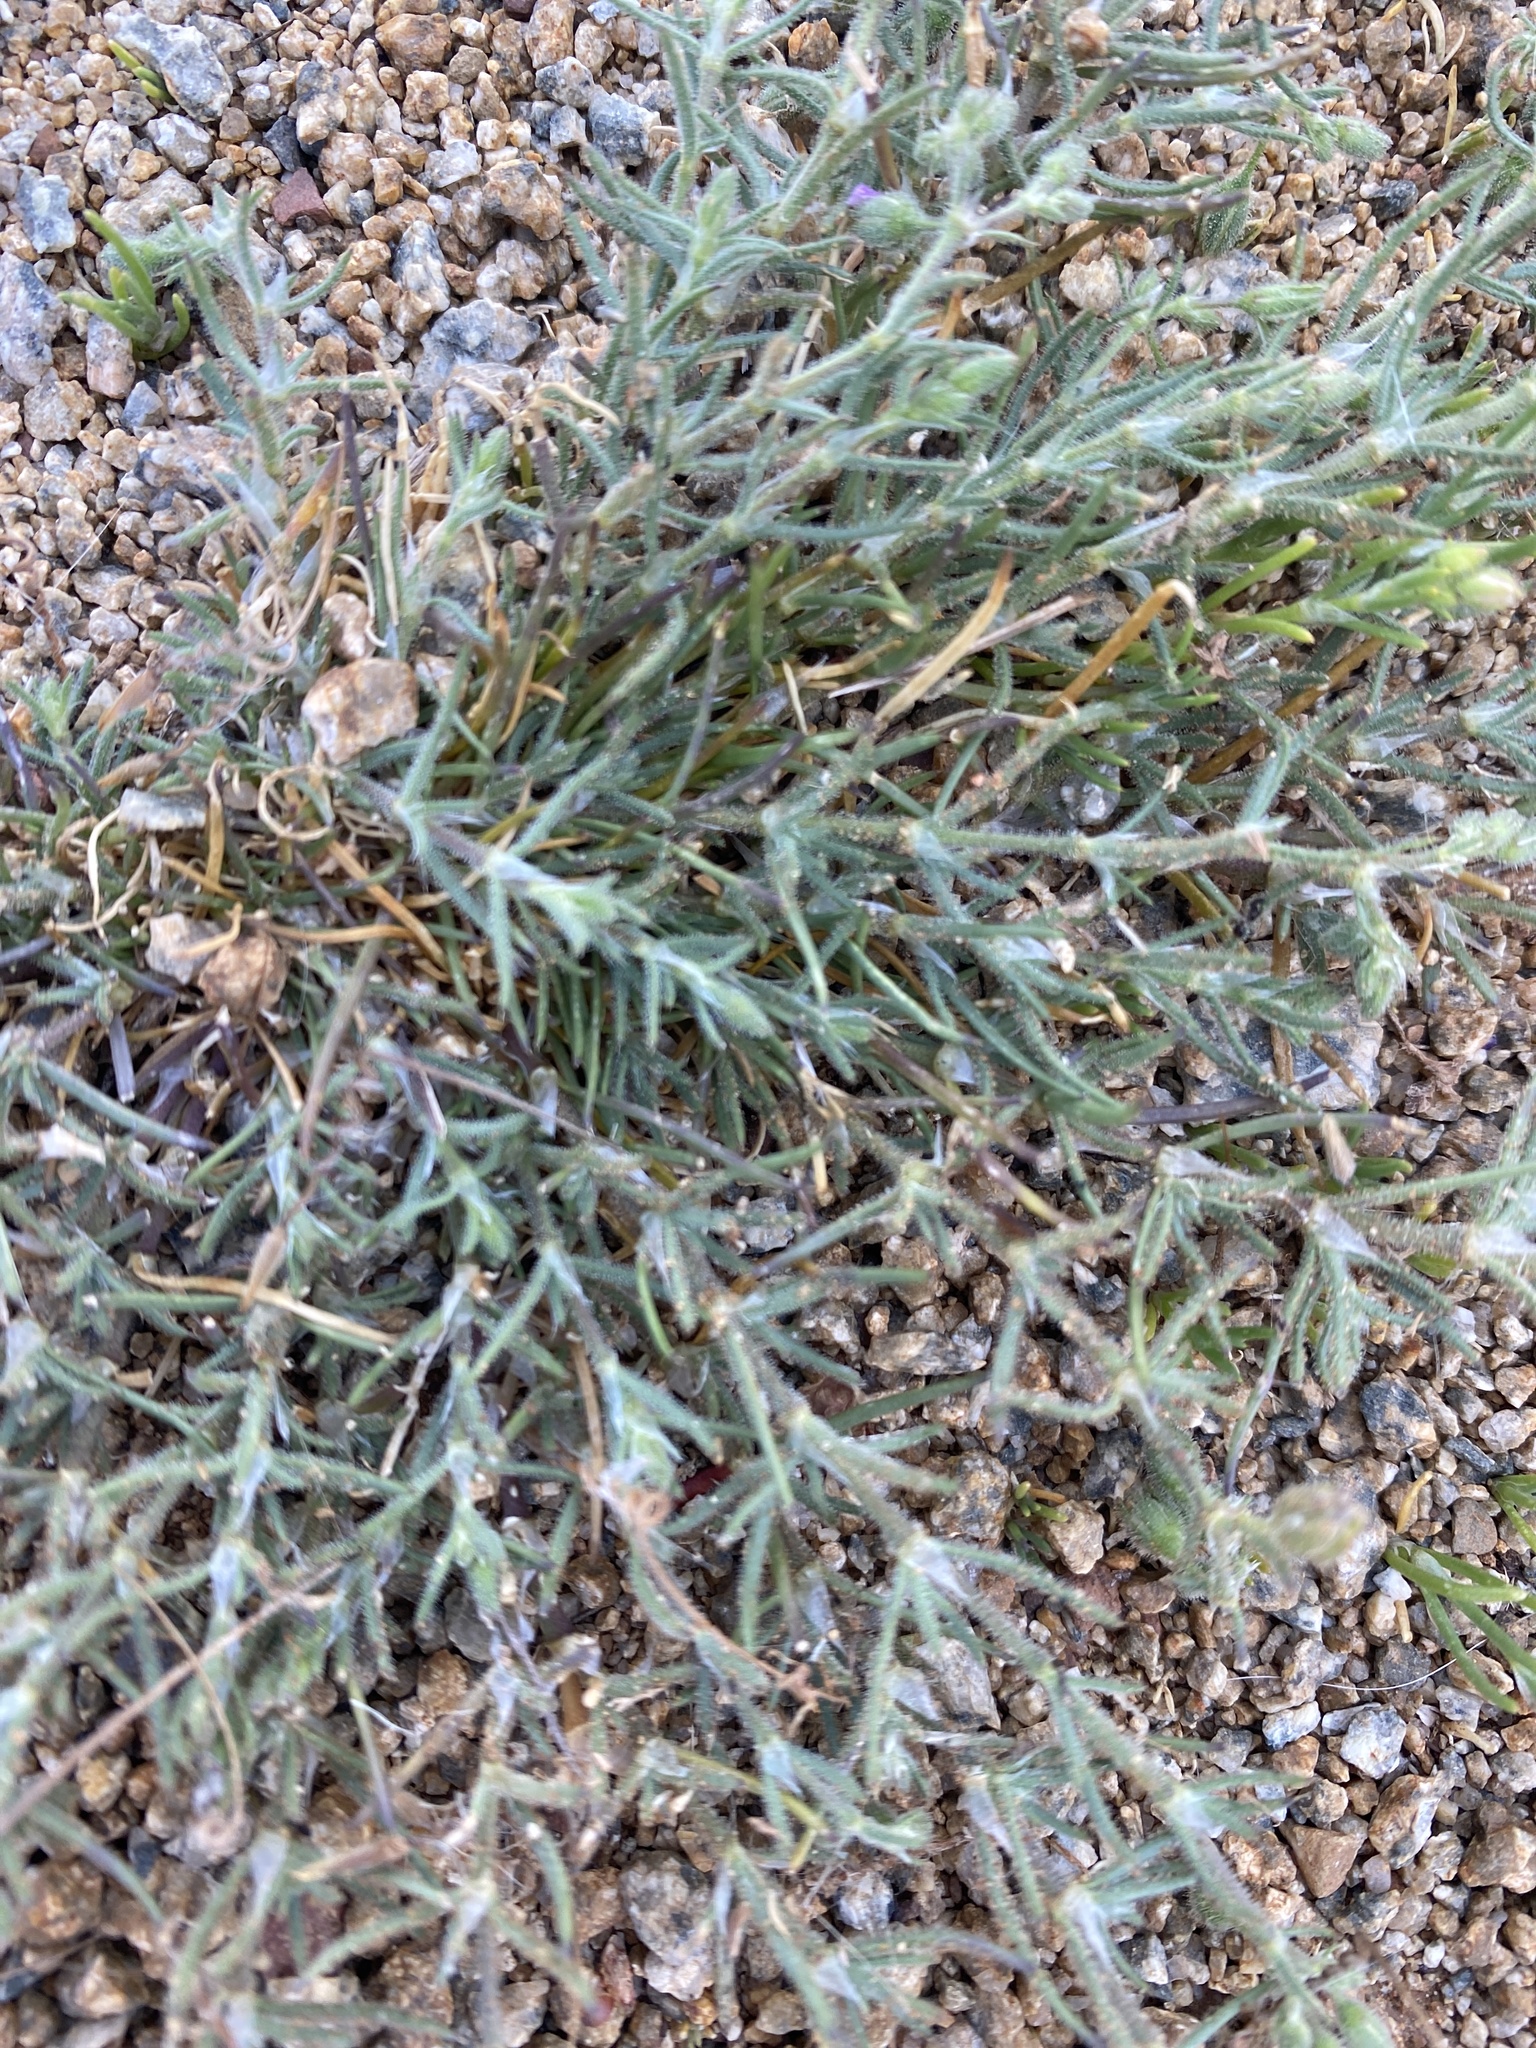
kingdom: Plantae
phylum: Tracheophyta
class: Magnoliopsida
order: Caryophyllales
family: Caryophyllaceae
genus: Spergularia
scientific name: Spergularia villosa
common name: Hairy sandspurry
